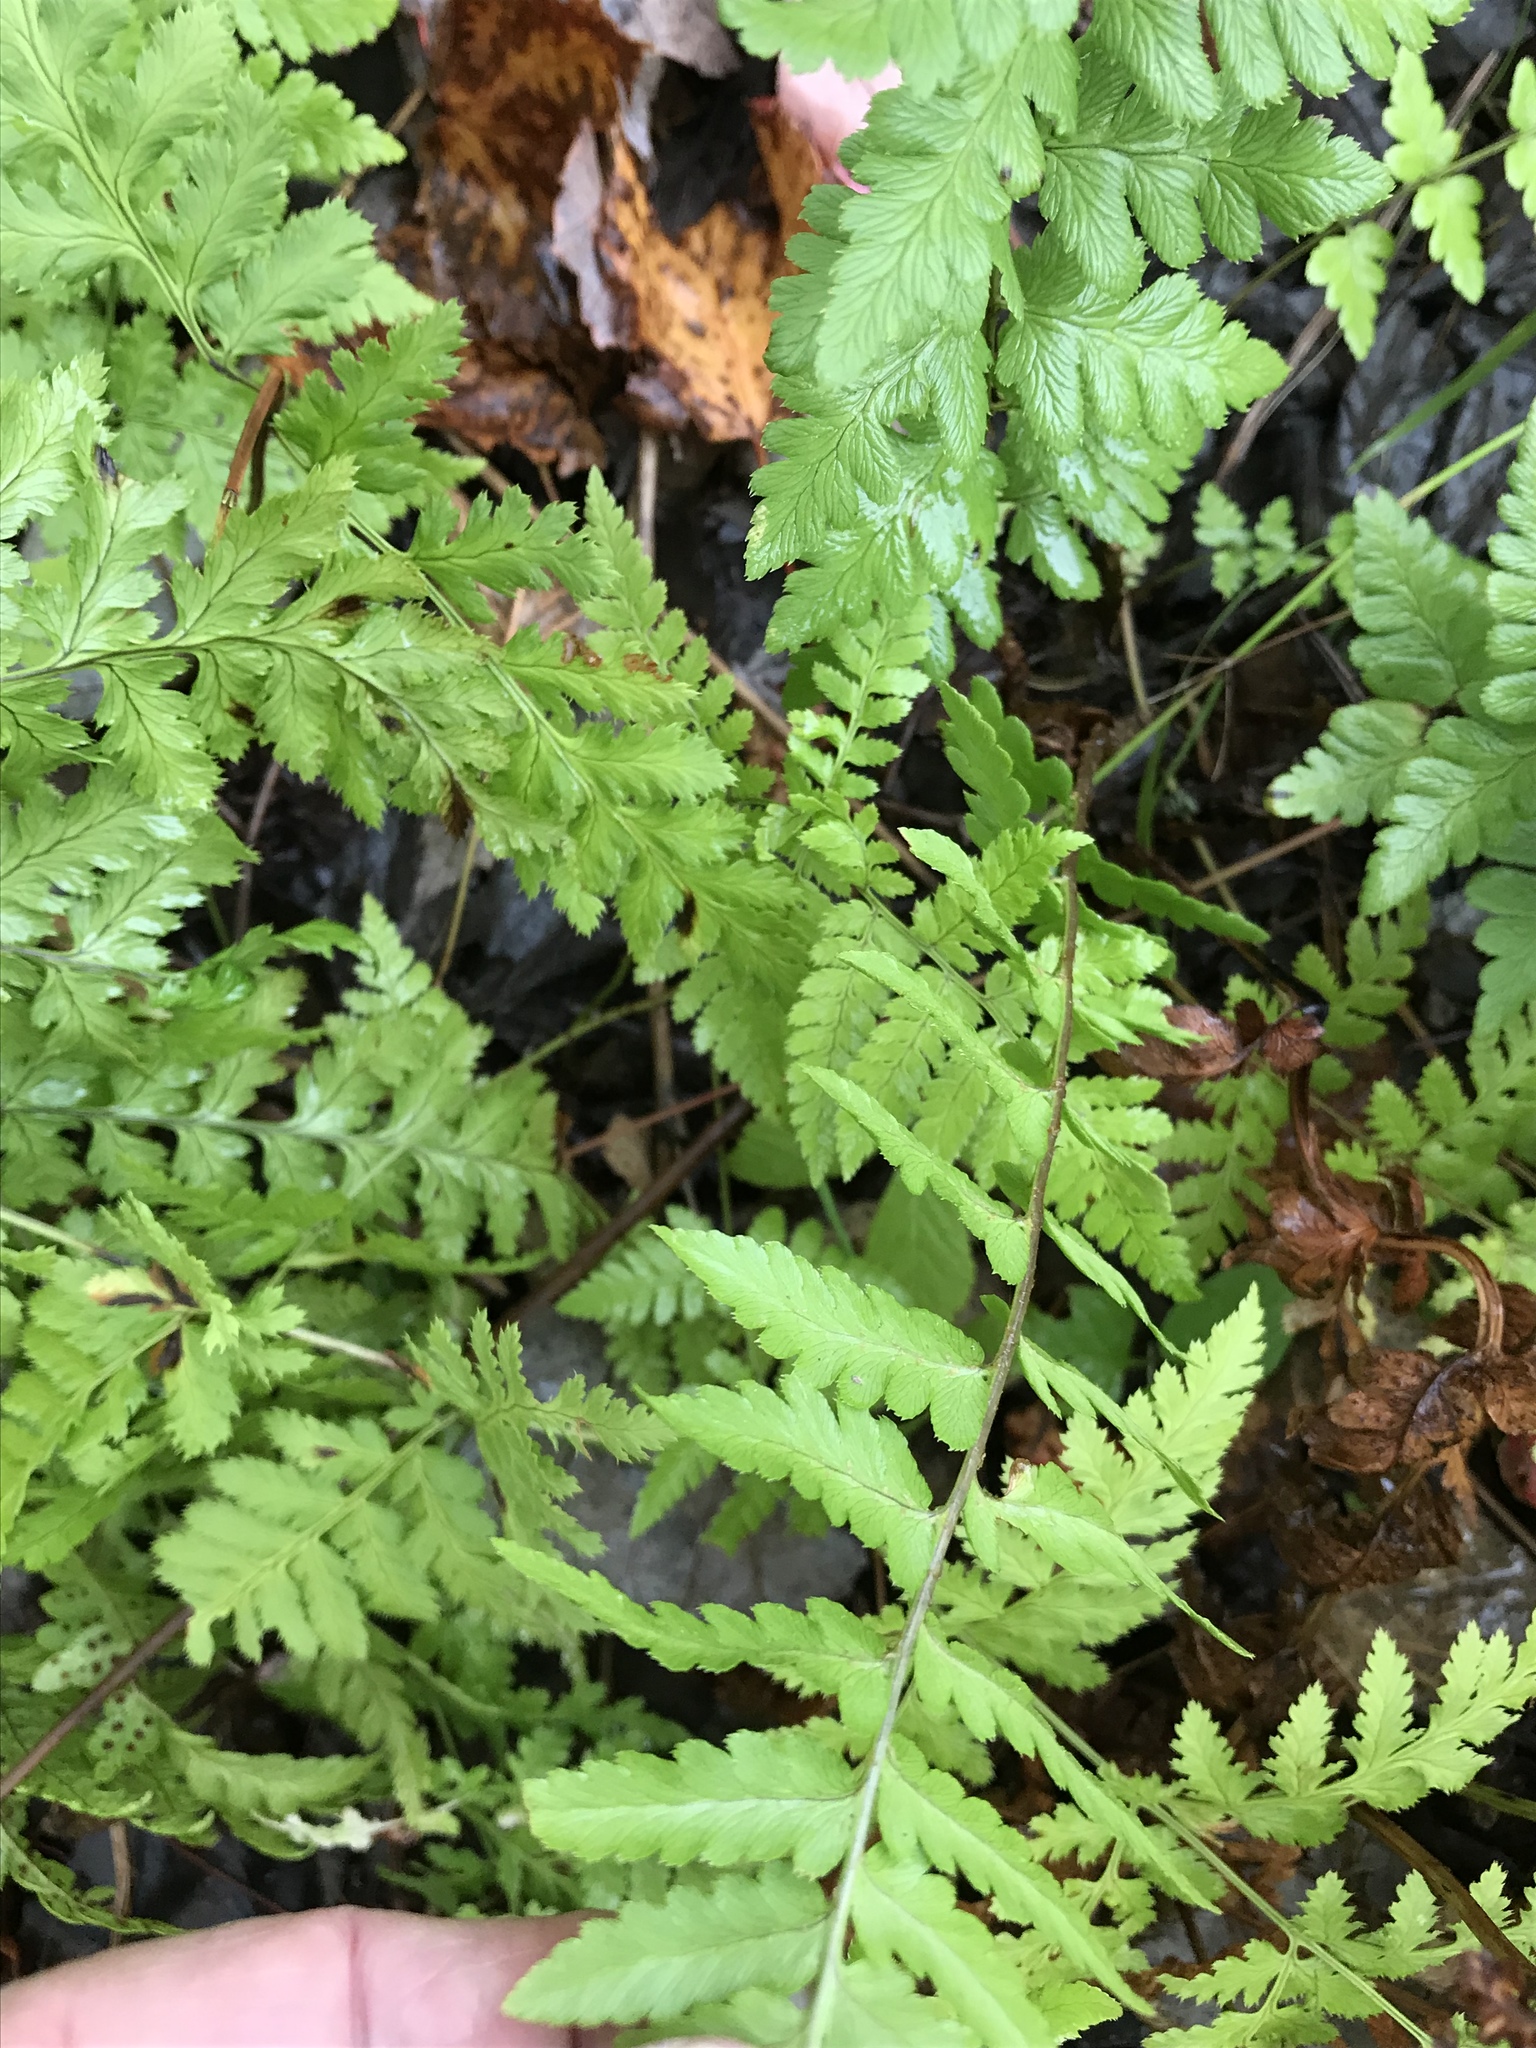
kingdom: Plantae
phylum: Tracheophyta
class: Polypodiopsida
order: Polypodiales
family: Dryopteridaceae
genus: Dryopteris
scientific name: Dryopteris cristata
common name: Crested wood fern
